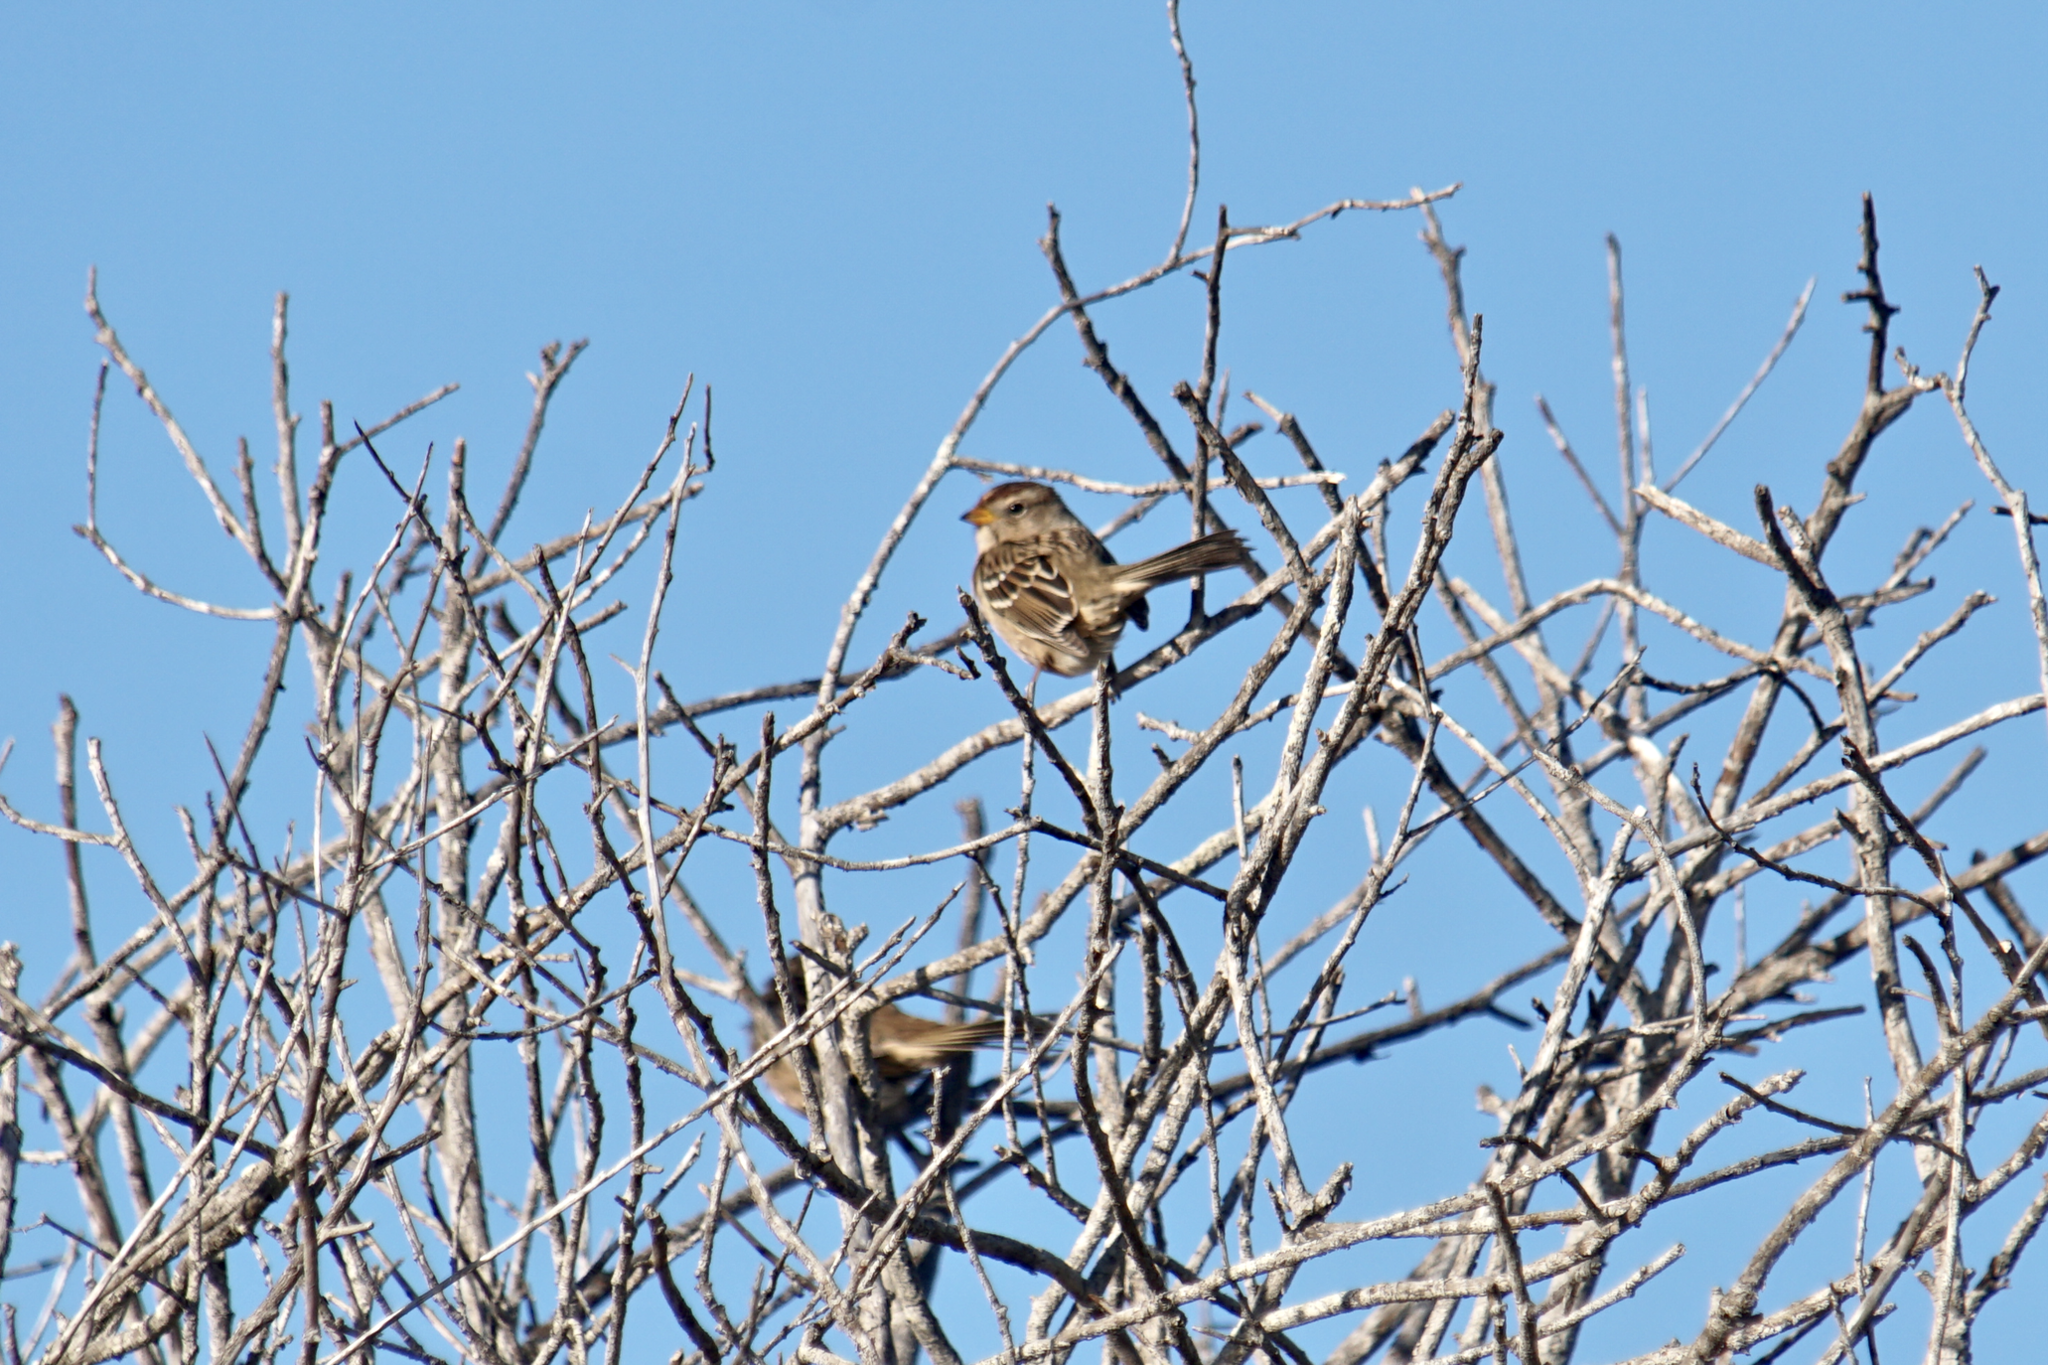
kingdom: Animalia
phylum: Chordata
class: Aves
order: Passeriformes
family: Passerellidae
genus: Zonotrichia
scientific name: Zonotrichia leucophrys
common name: White-crowned sparrow
